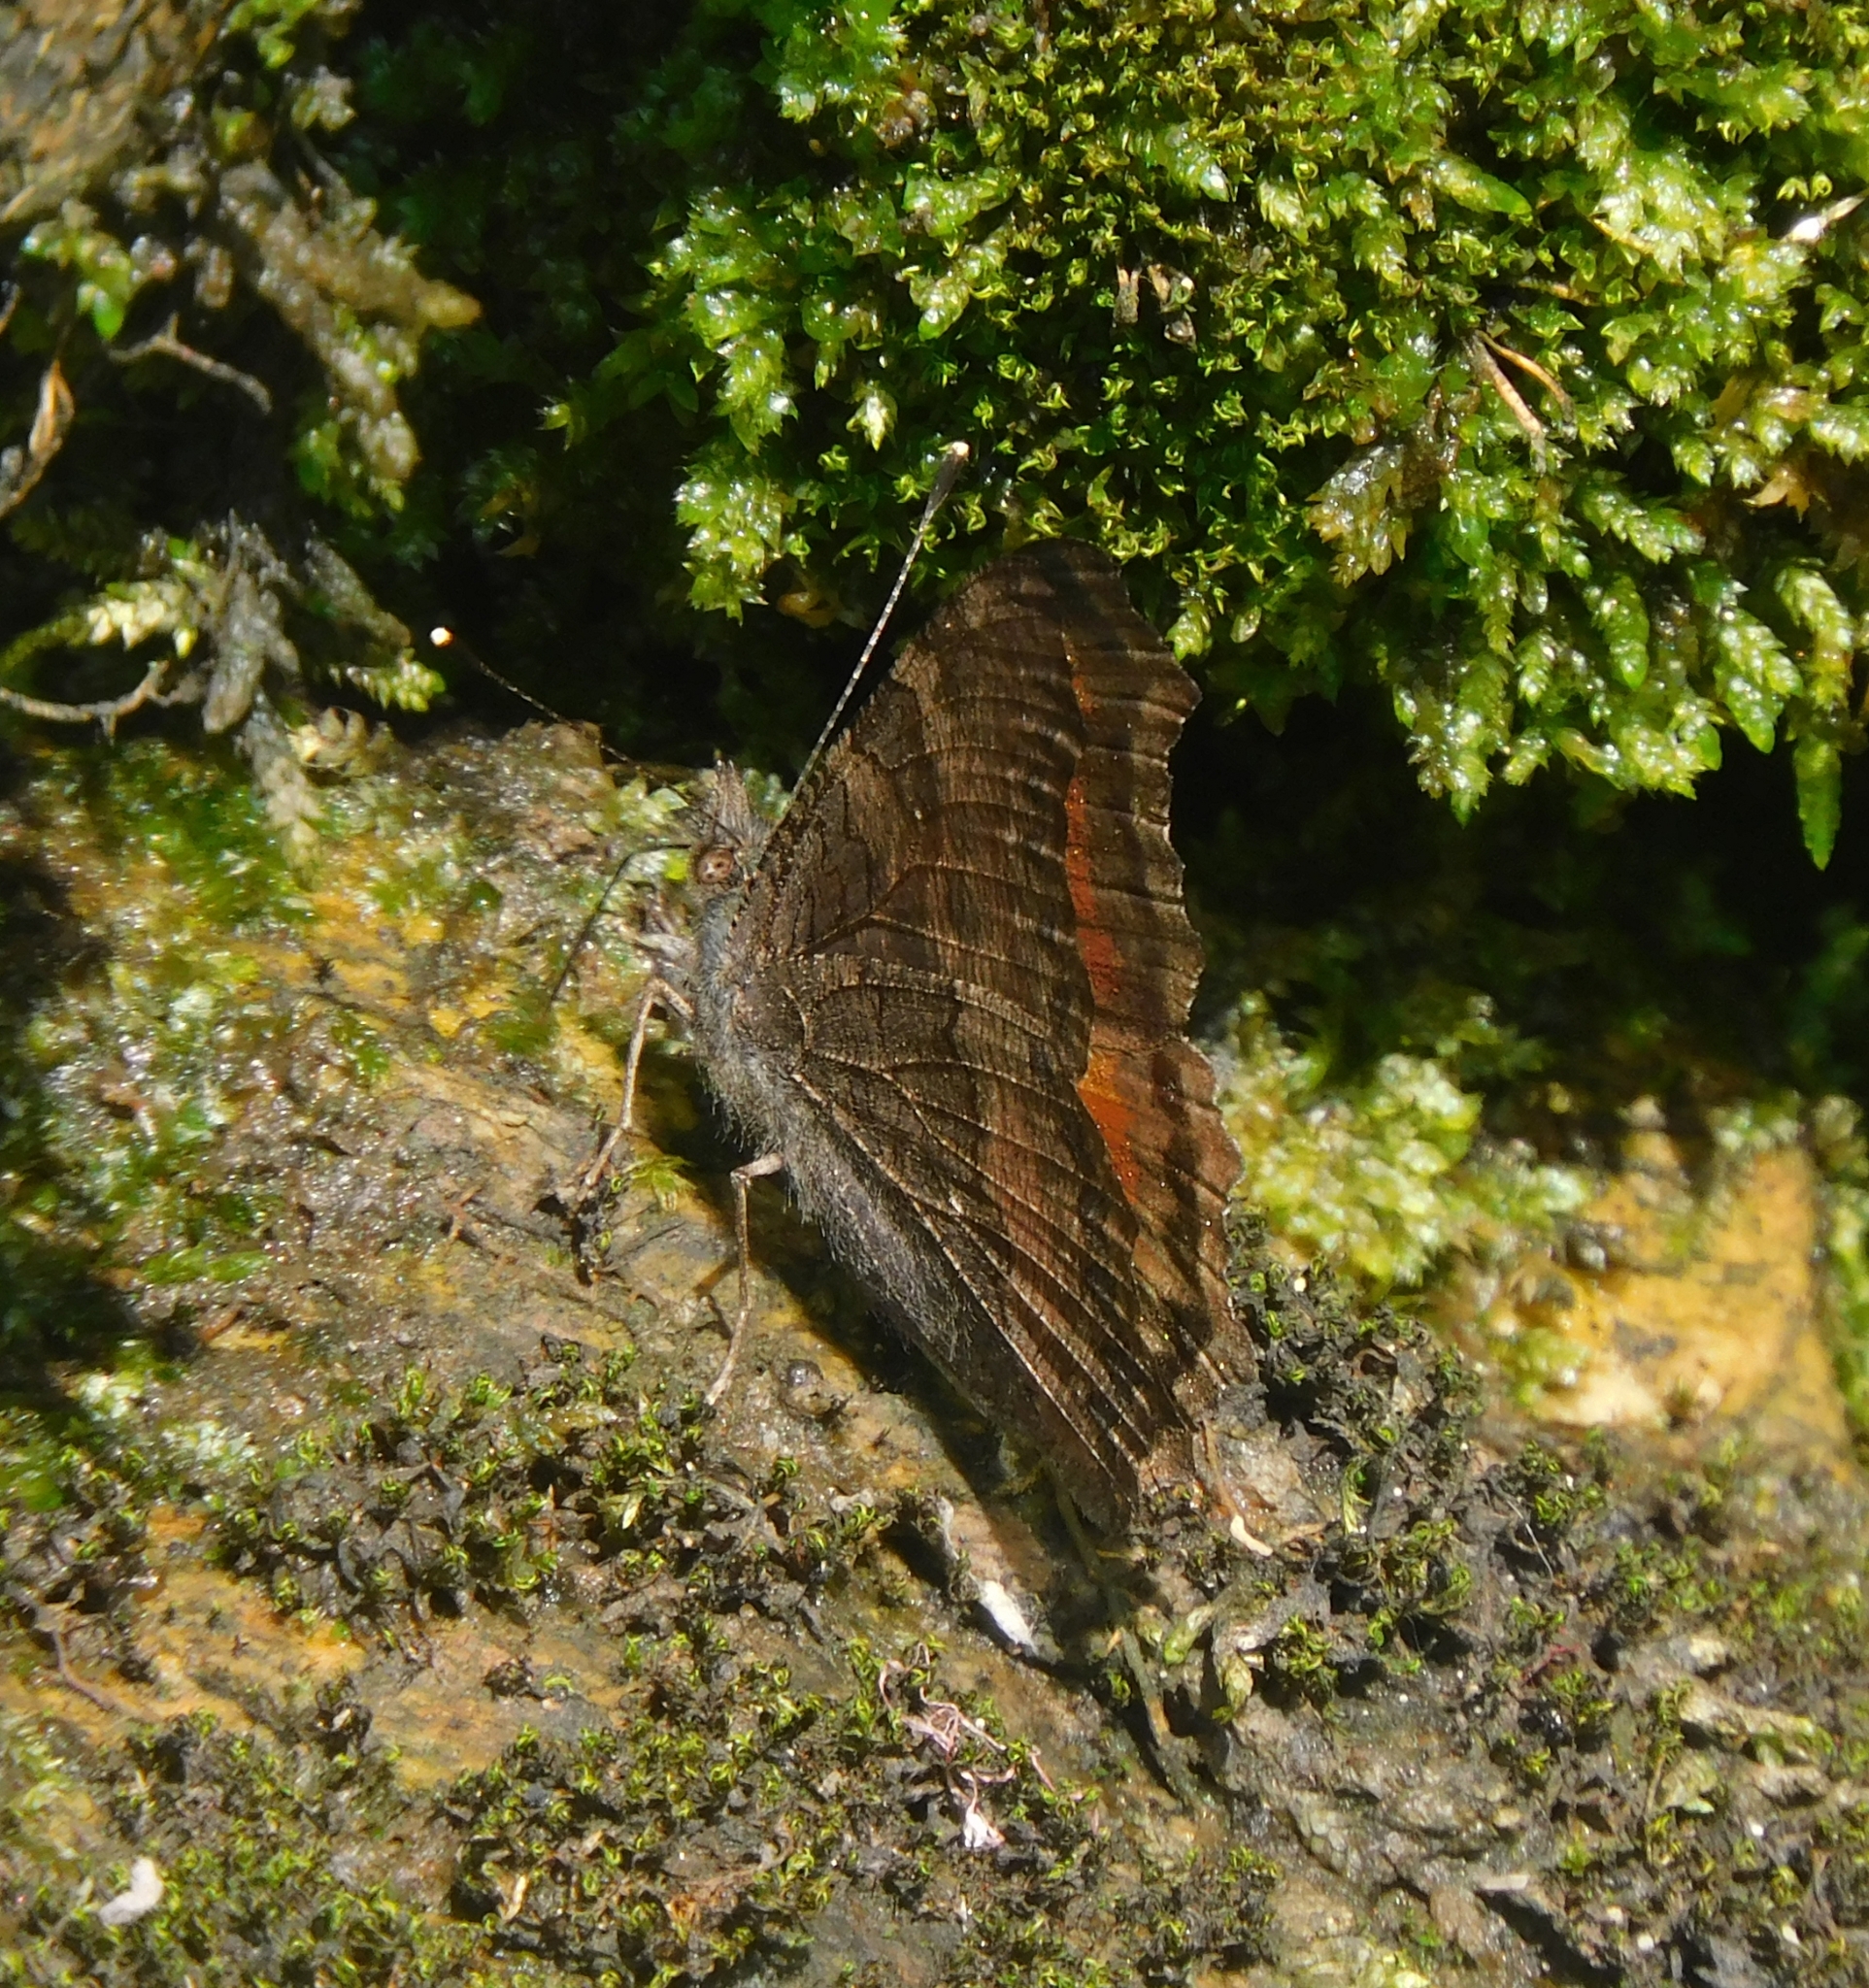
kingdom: Animalia
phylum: Arthropoda
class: Insecta
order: Lepidoptera
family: Nymphalidae
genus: Aglais
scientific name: Aglais caschmirensis
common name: Indian tortoiseshell
